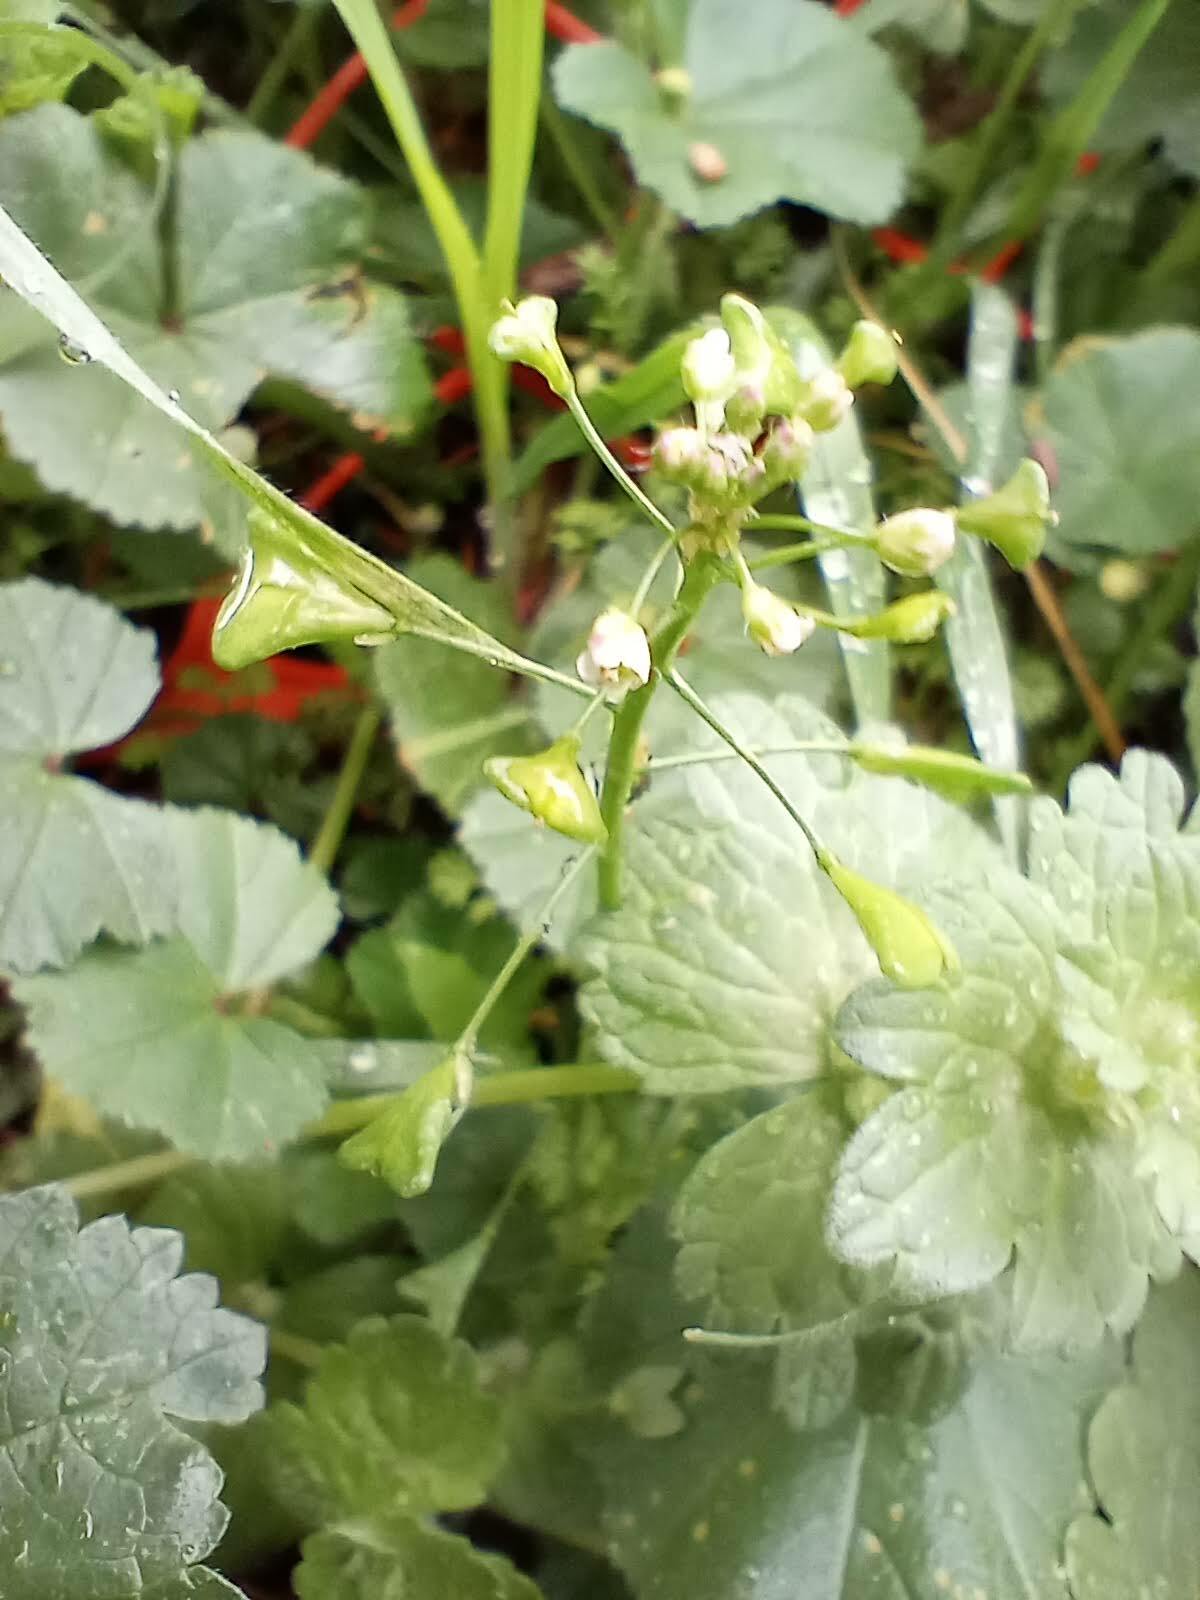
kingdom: Plantae
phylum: Tracheophyta
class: Magnoliopsida
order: Brassicales
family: Brassicaceae
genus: Capsella
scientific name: Capsella bursa-pastoris
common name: Shepherd's purse
